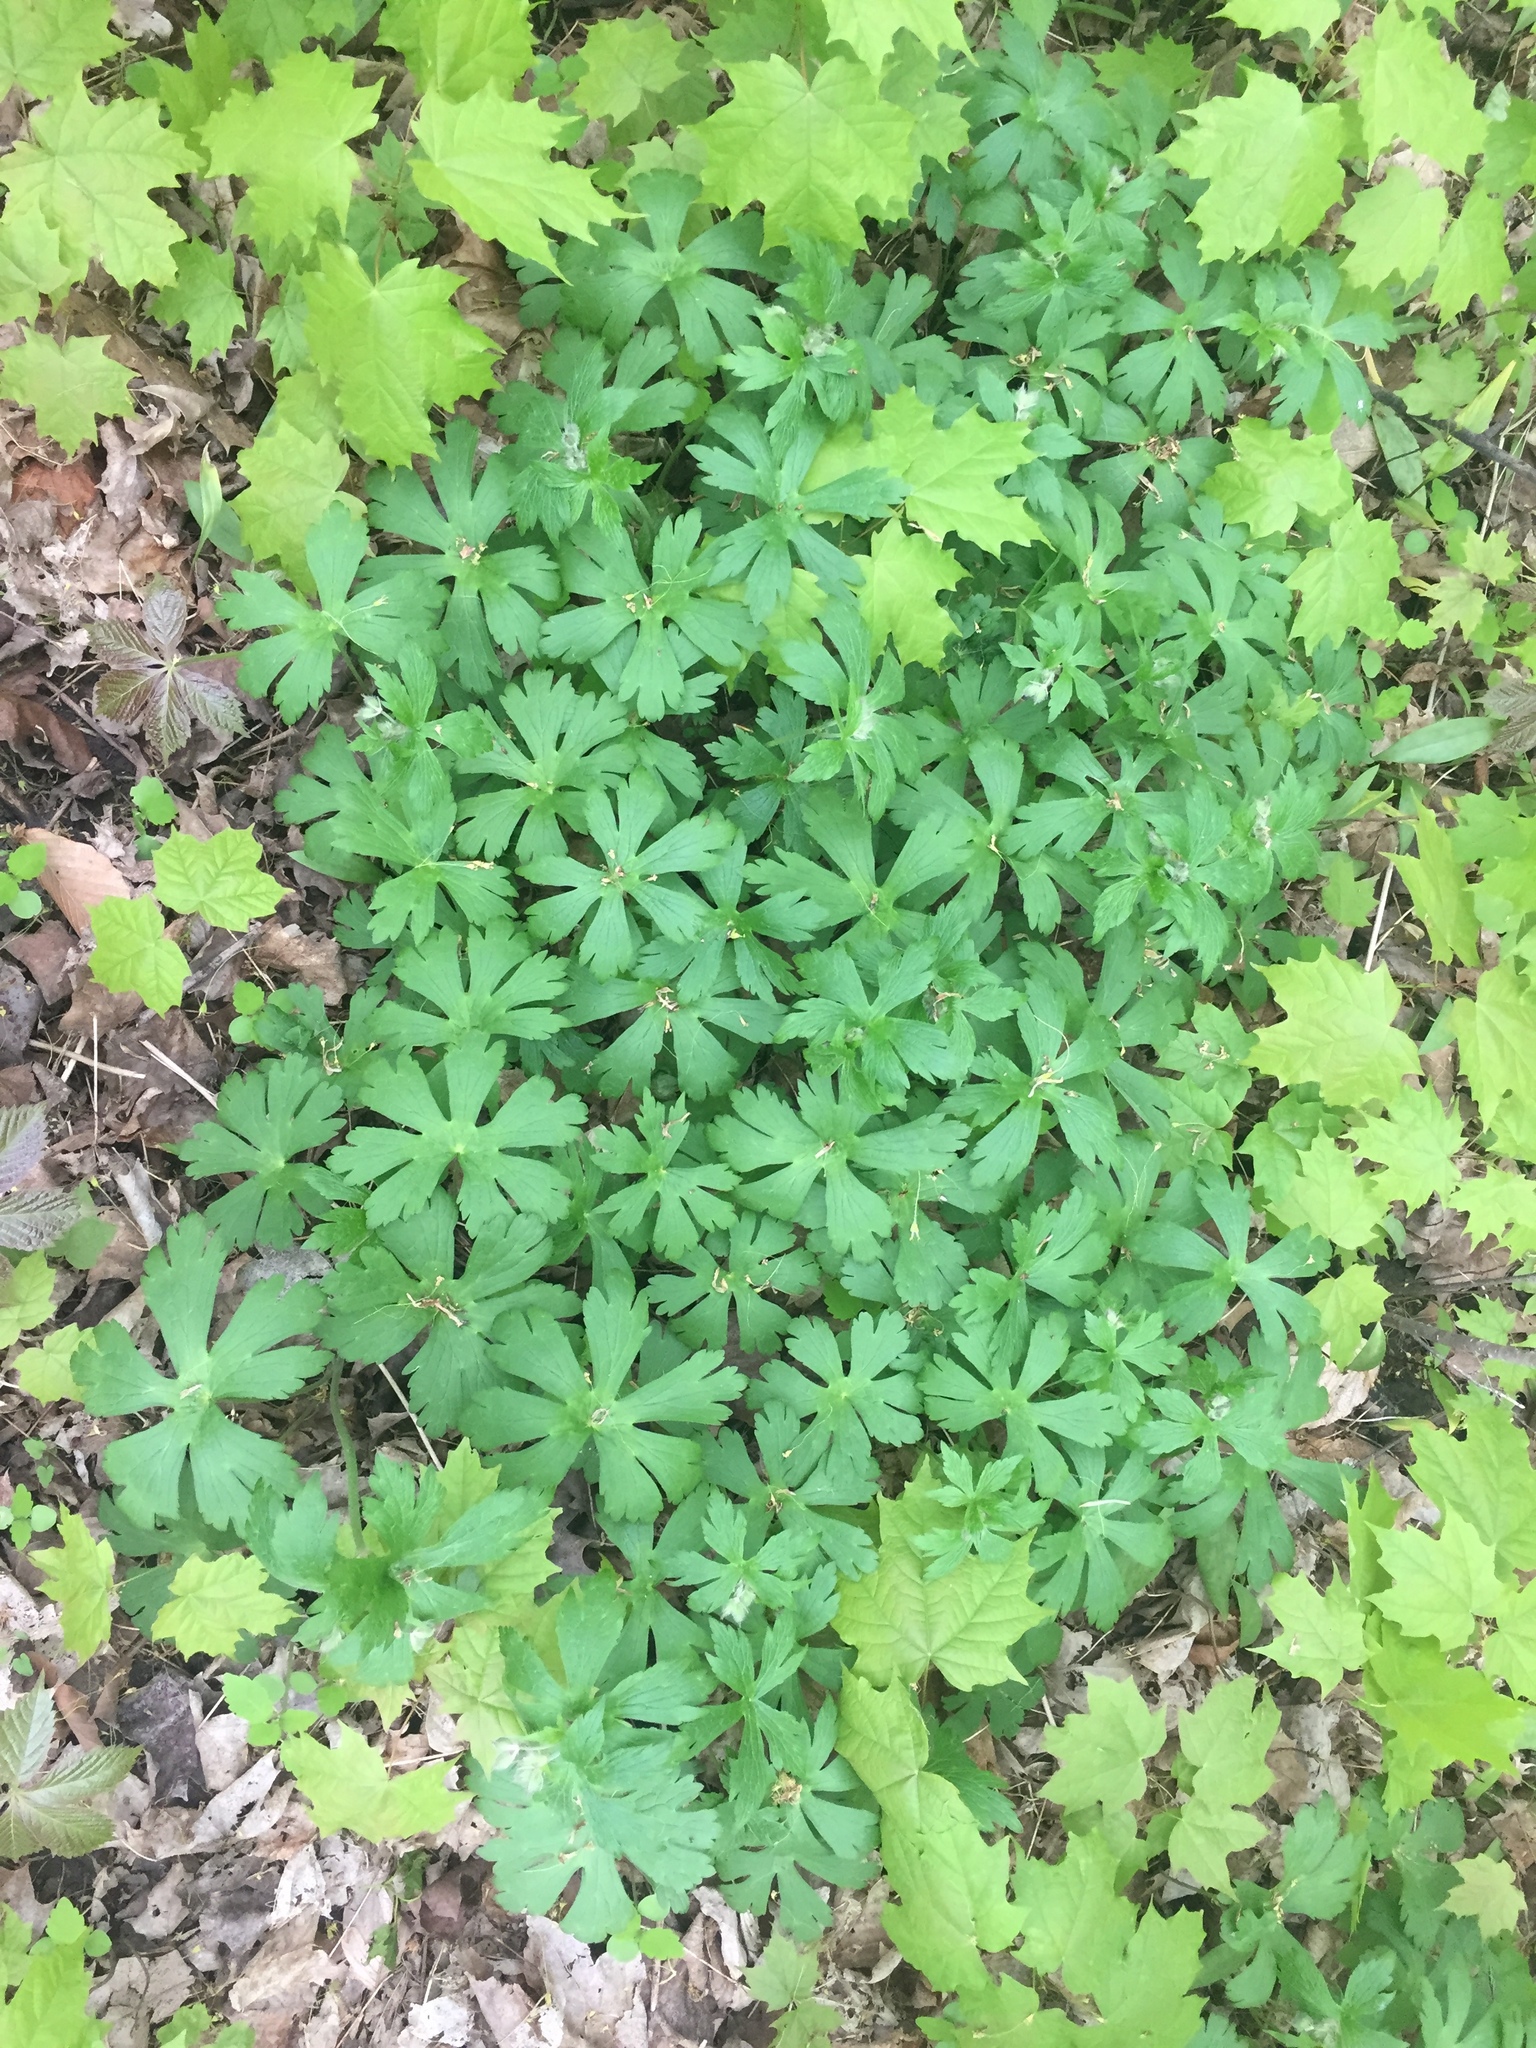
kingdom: Plantae
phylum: Tracheophyta
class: Magnoliopsida
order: Geraniales
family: Geraniaceae
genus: Geranium
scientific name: Geranium maculatum
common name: Spotted geranium
